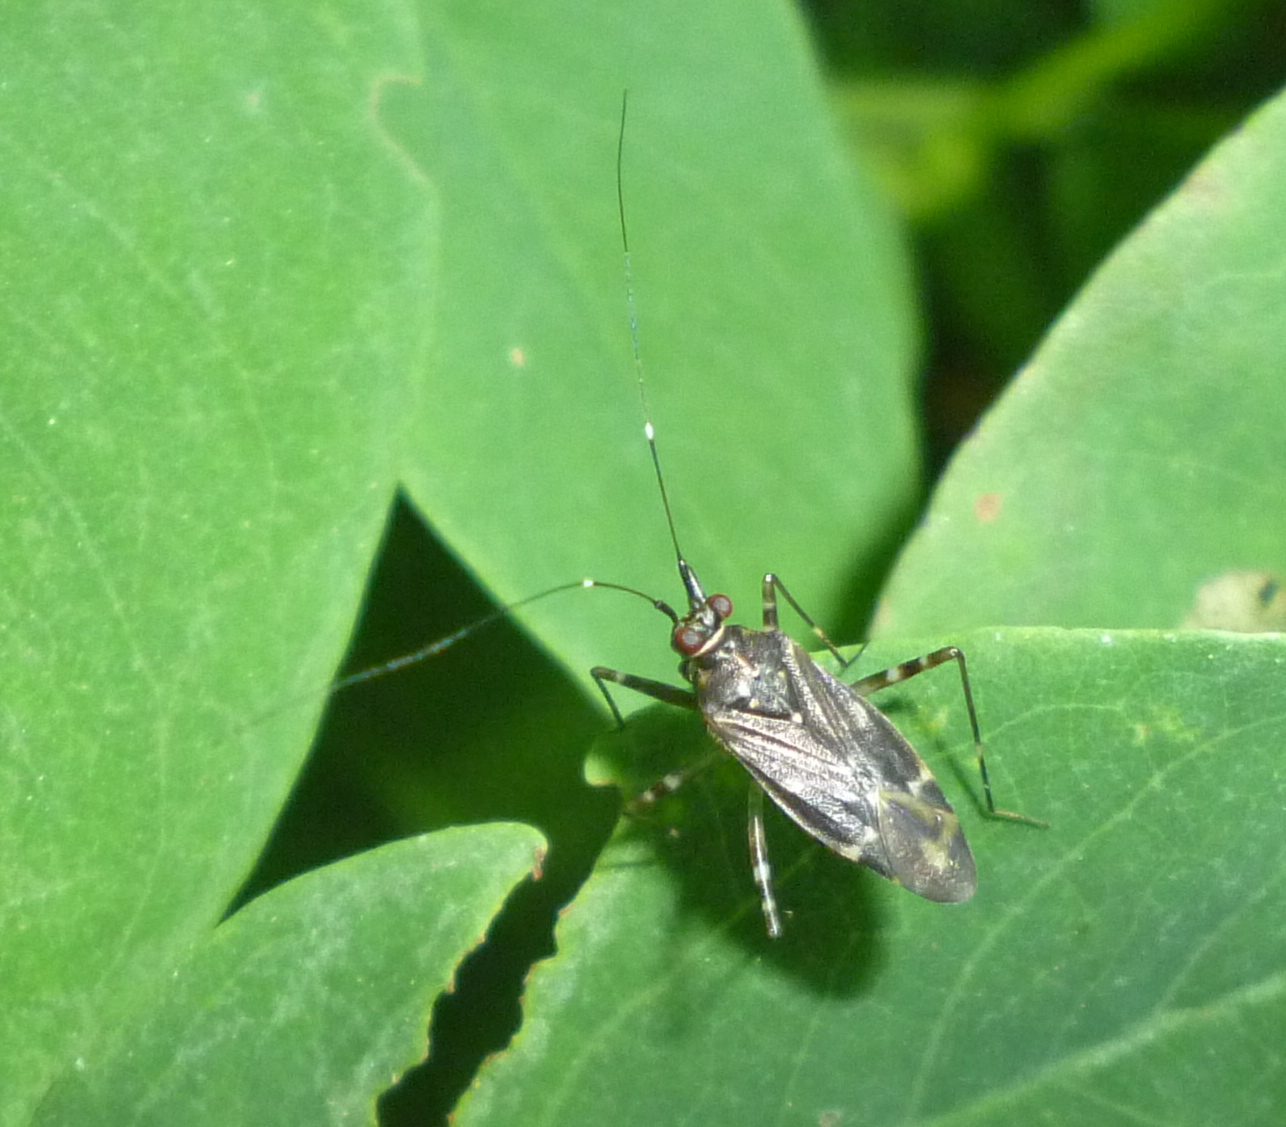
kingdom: Animalia
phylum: Arthropoda
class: Insecta
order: Hemiptera
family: Miridae
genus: Cylapus
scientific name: Cylapus tenuicornis
